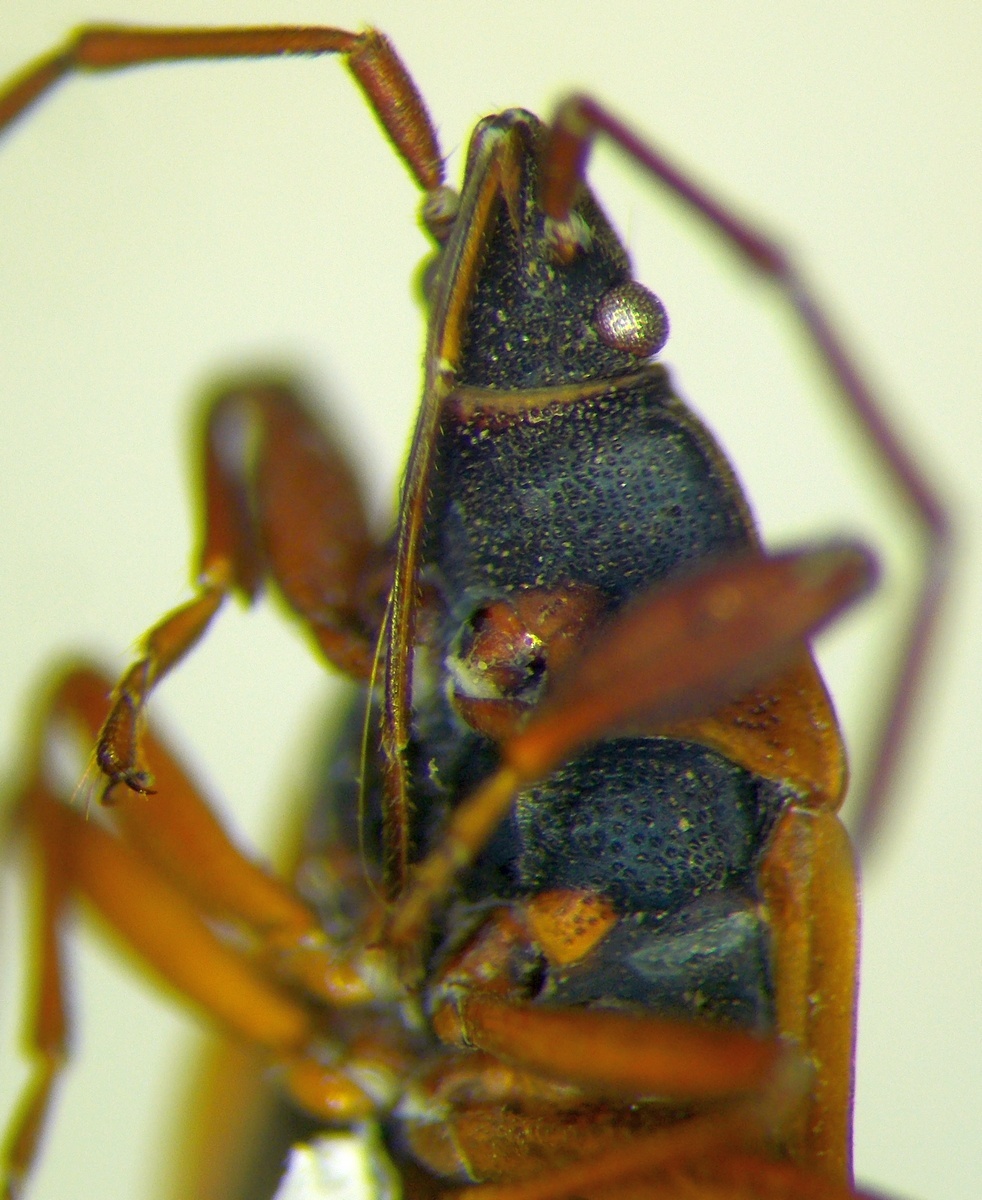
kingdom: Animalia
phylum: Arthropoda
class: Insecta
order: Hemiptera
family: Rhyparochromidae
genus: Gastrodes
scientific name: Gastrodes grossipes
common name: Pine cone bug
